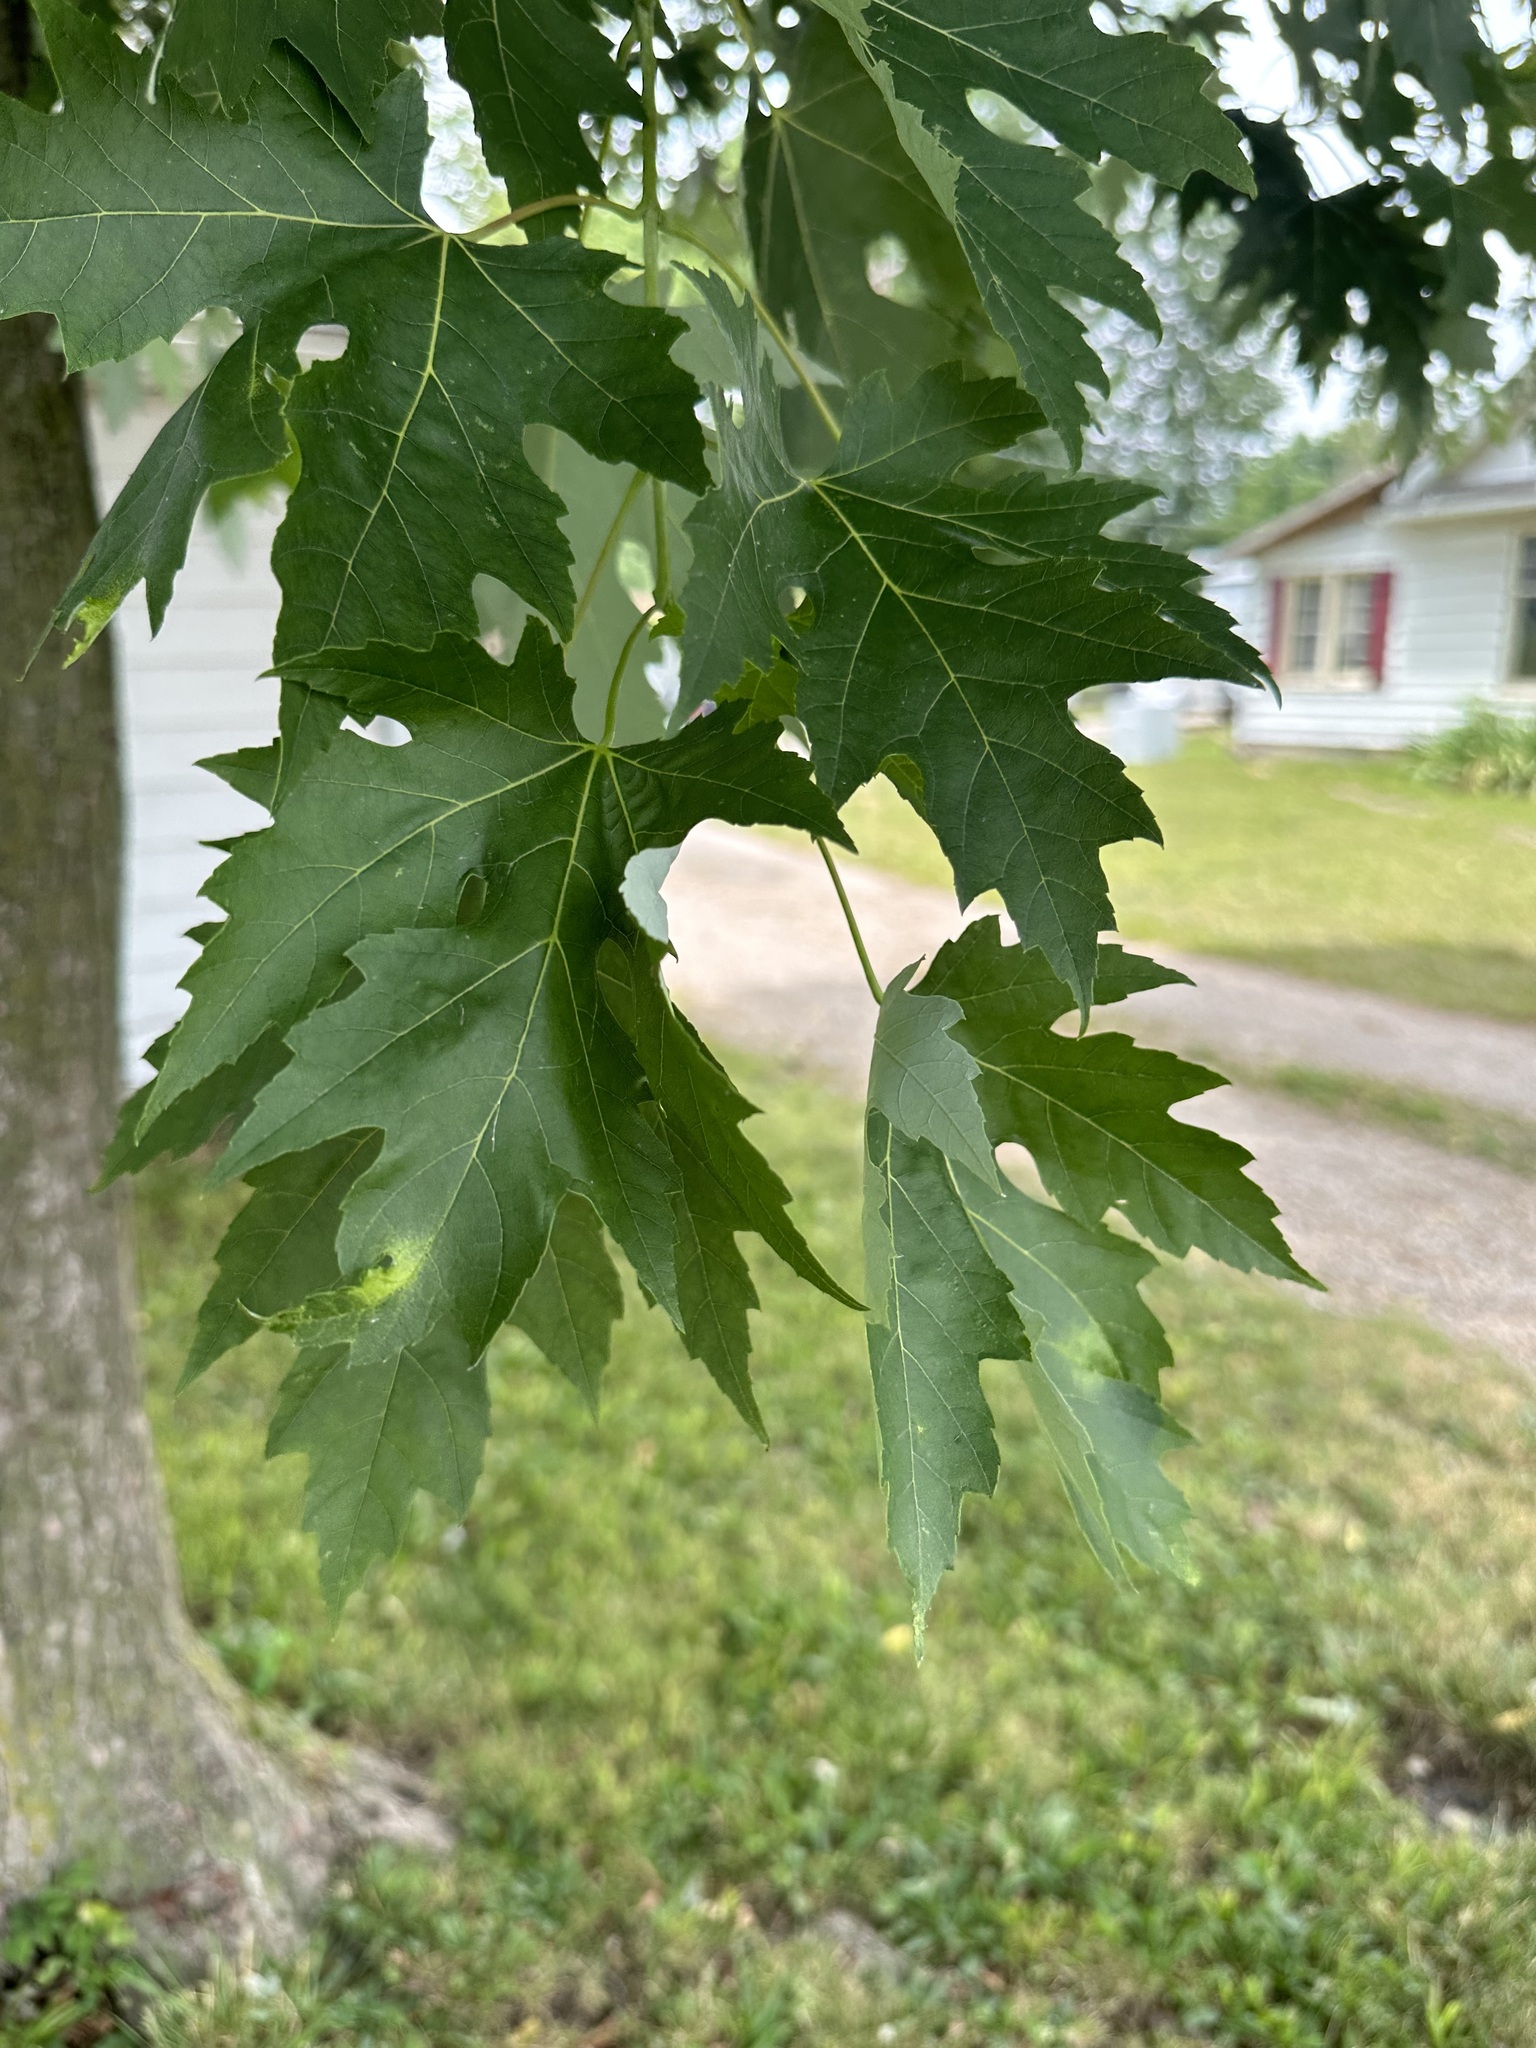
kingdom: Plantae
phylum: Tracheophyta
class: Magnoliopsida
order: Sapindales
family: Sapindaceae
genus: Acer
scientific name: Acer saccharinum
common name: Silver maple
